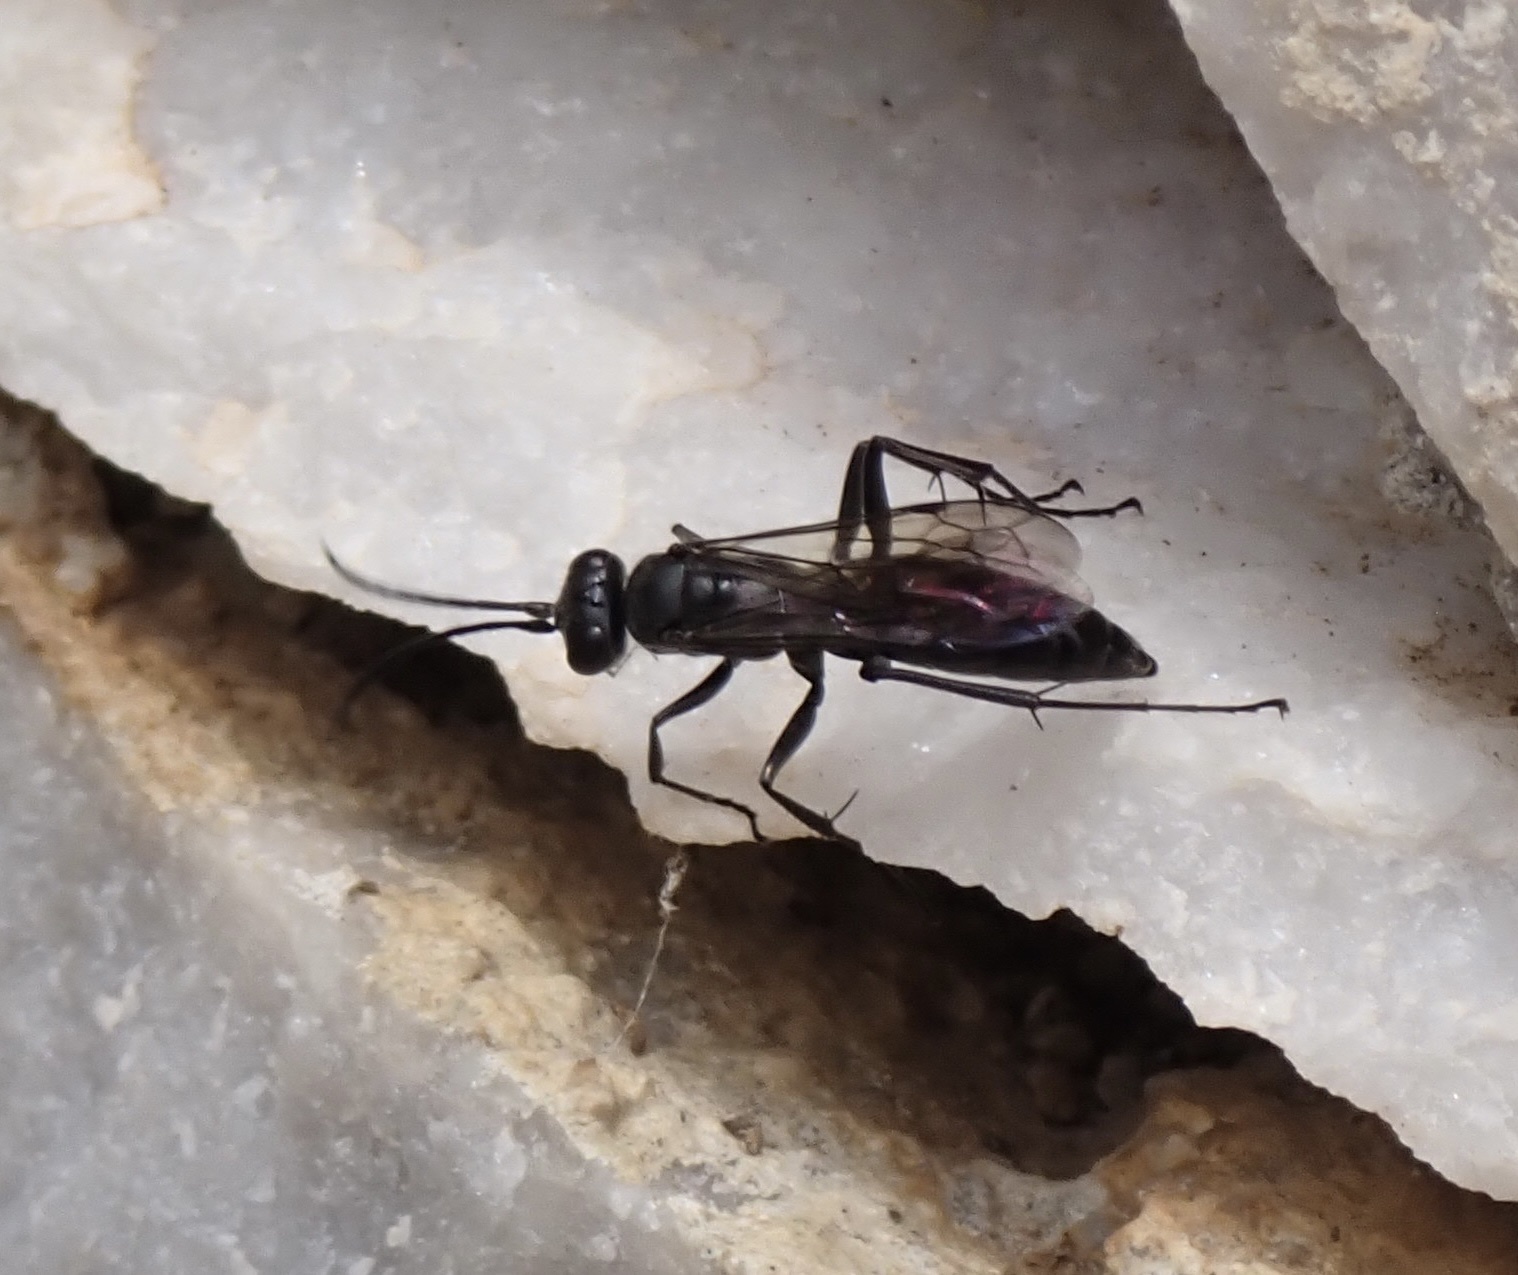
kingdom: Animalia
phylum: Arthropoda
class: Insecta
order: Hymenoptera
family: Pompilidae
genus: Auplopus
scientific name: Auplopus carbonarius
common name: Spider wasp
